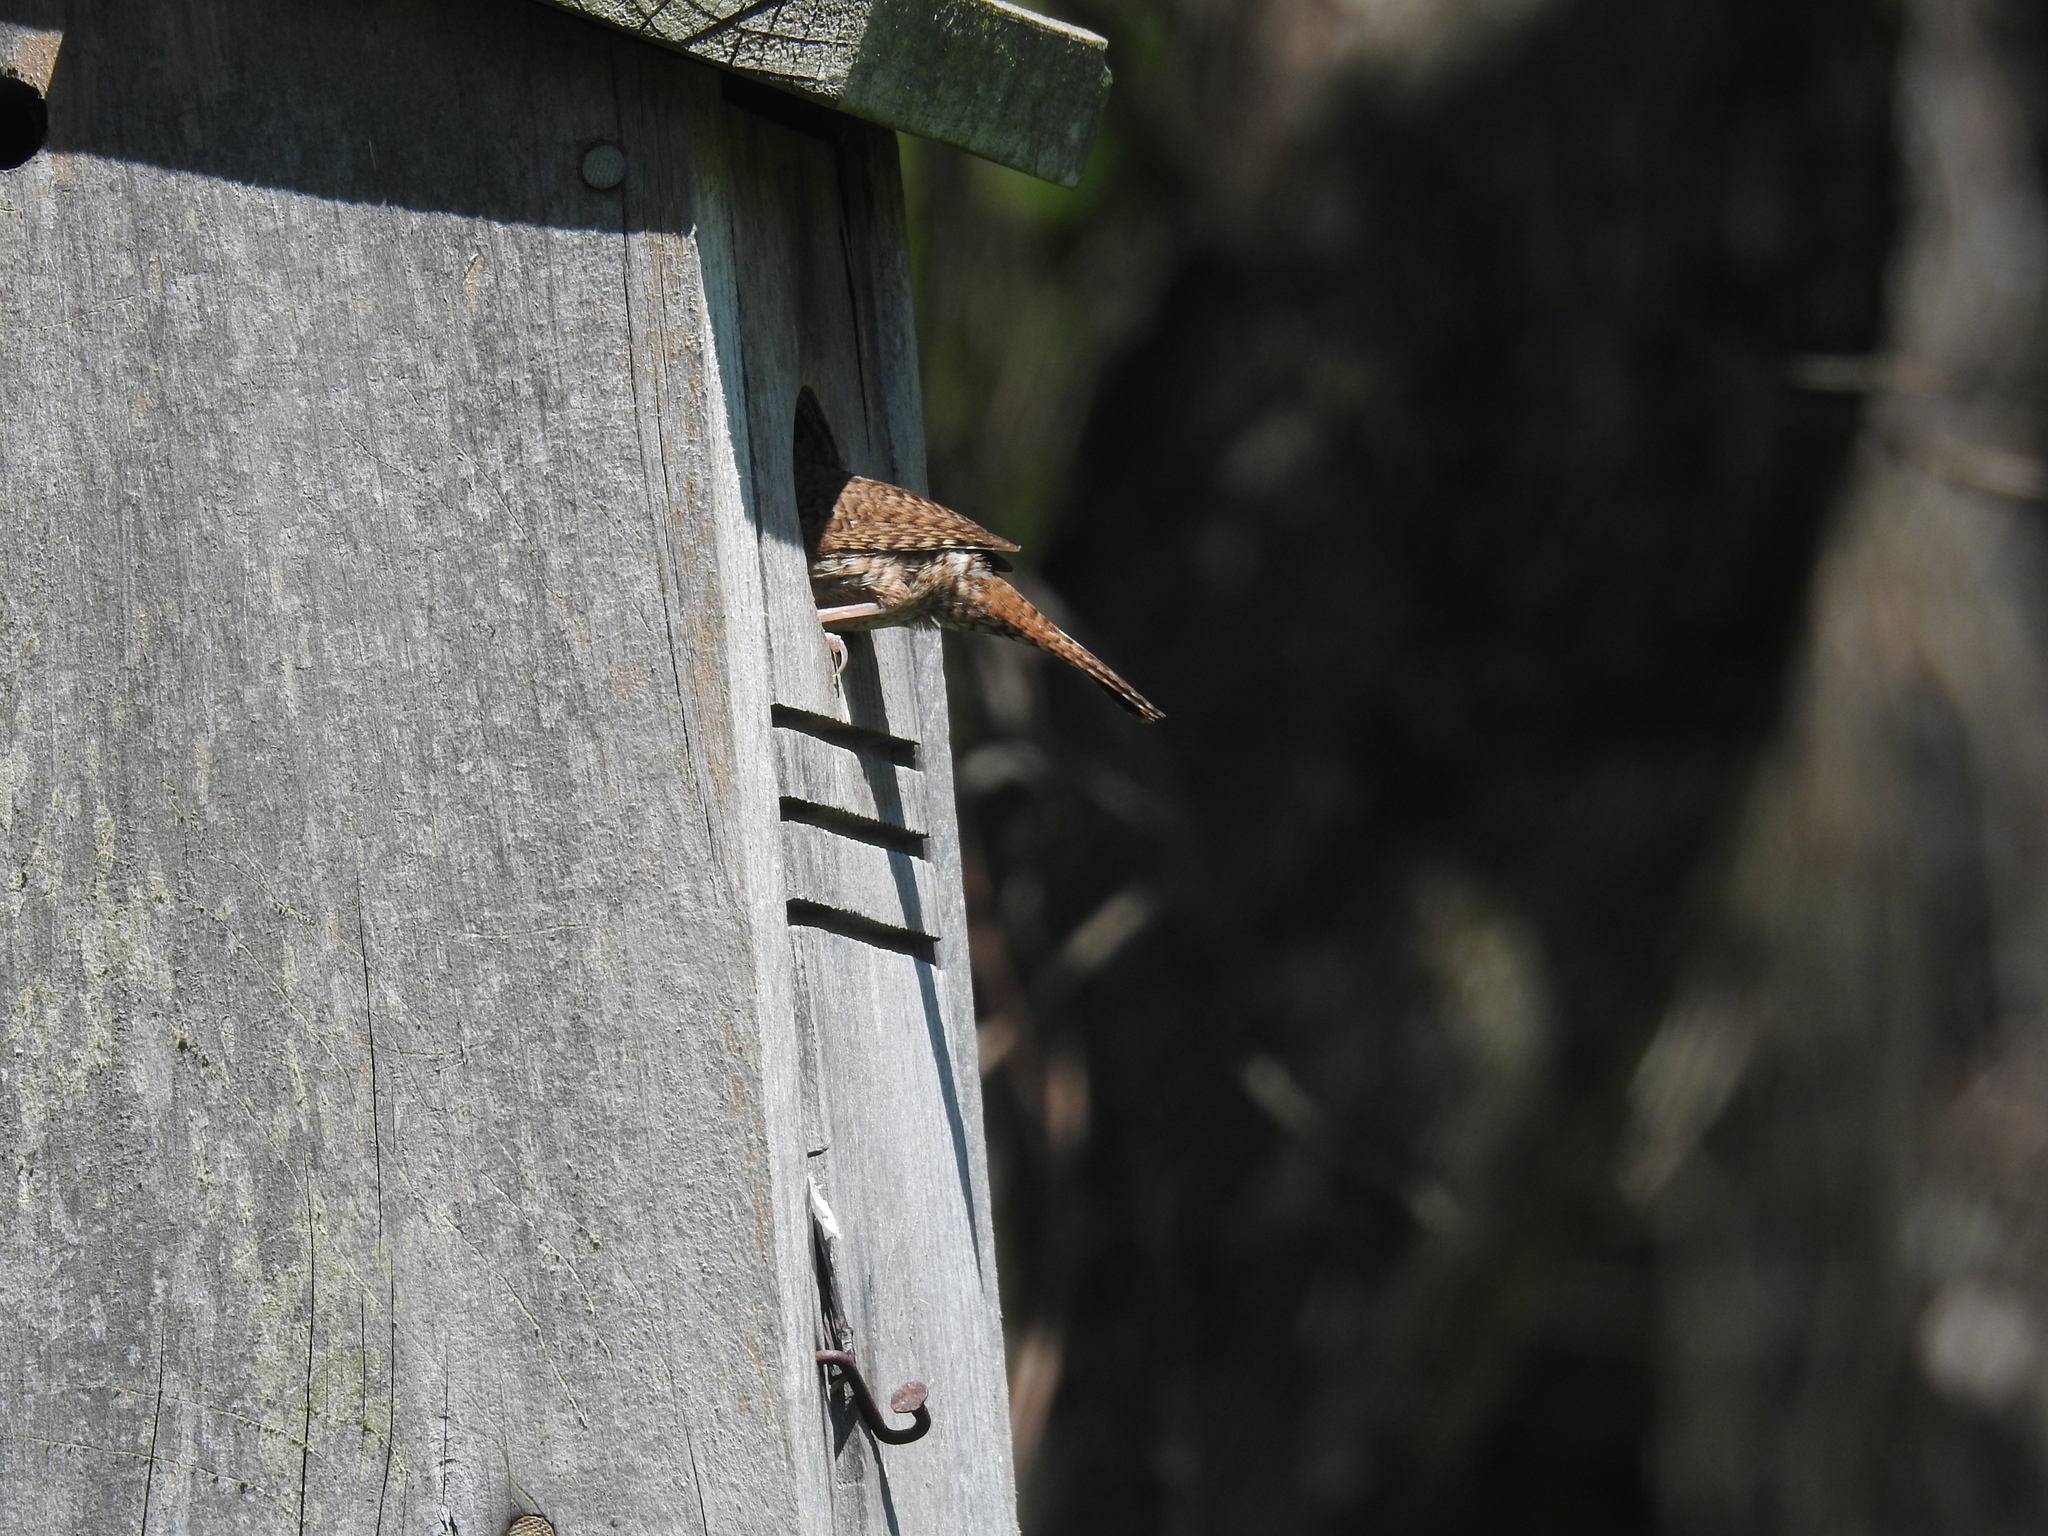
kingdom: Animalia
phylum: Chordata
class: Aves
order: Passeriformes
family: Troglodytidae
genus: Troglodytes
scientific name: Troglodytes aedon
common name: House wren
